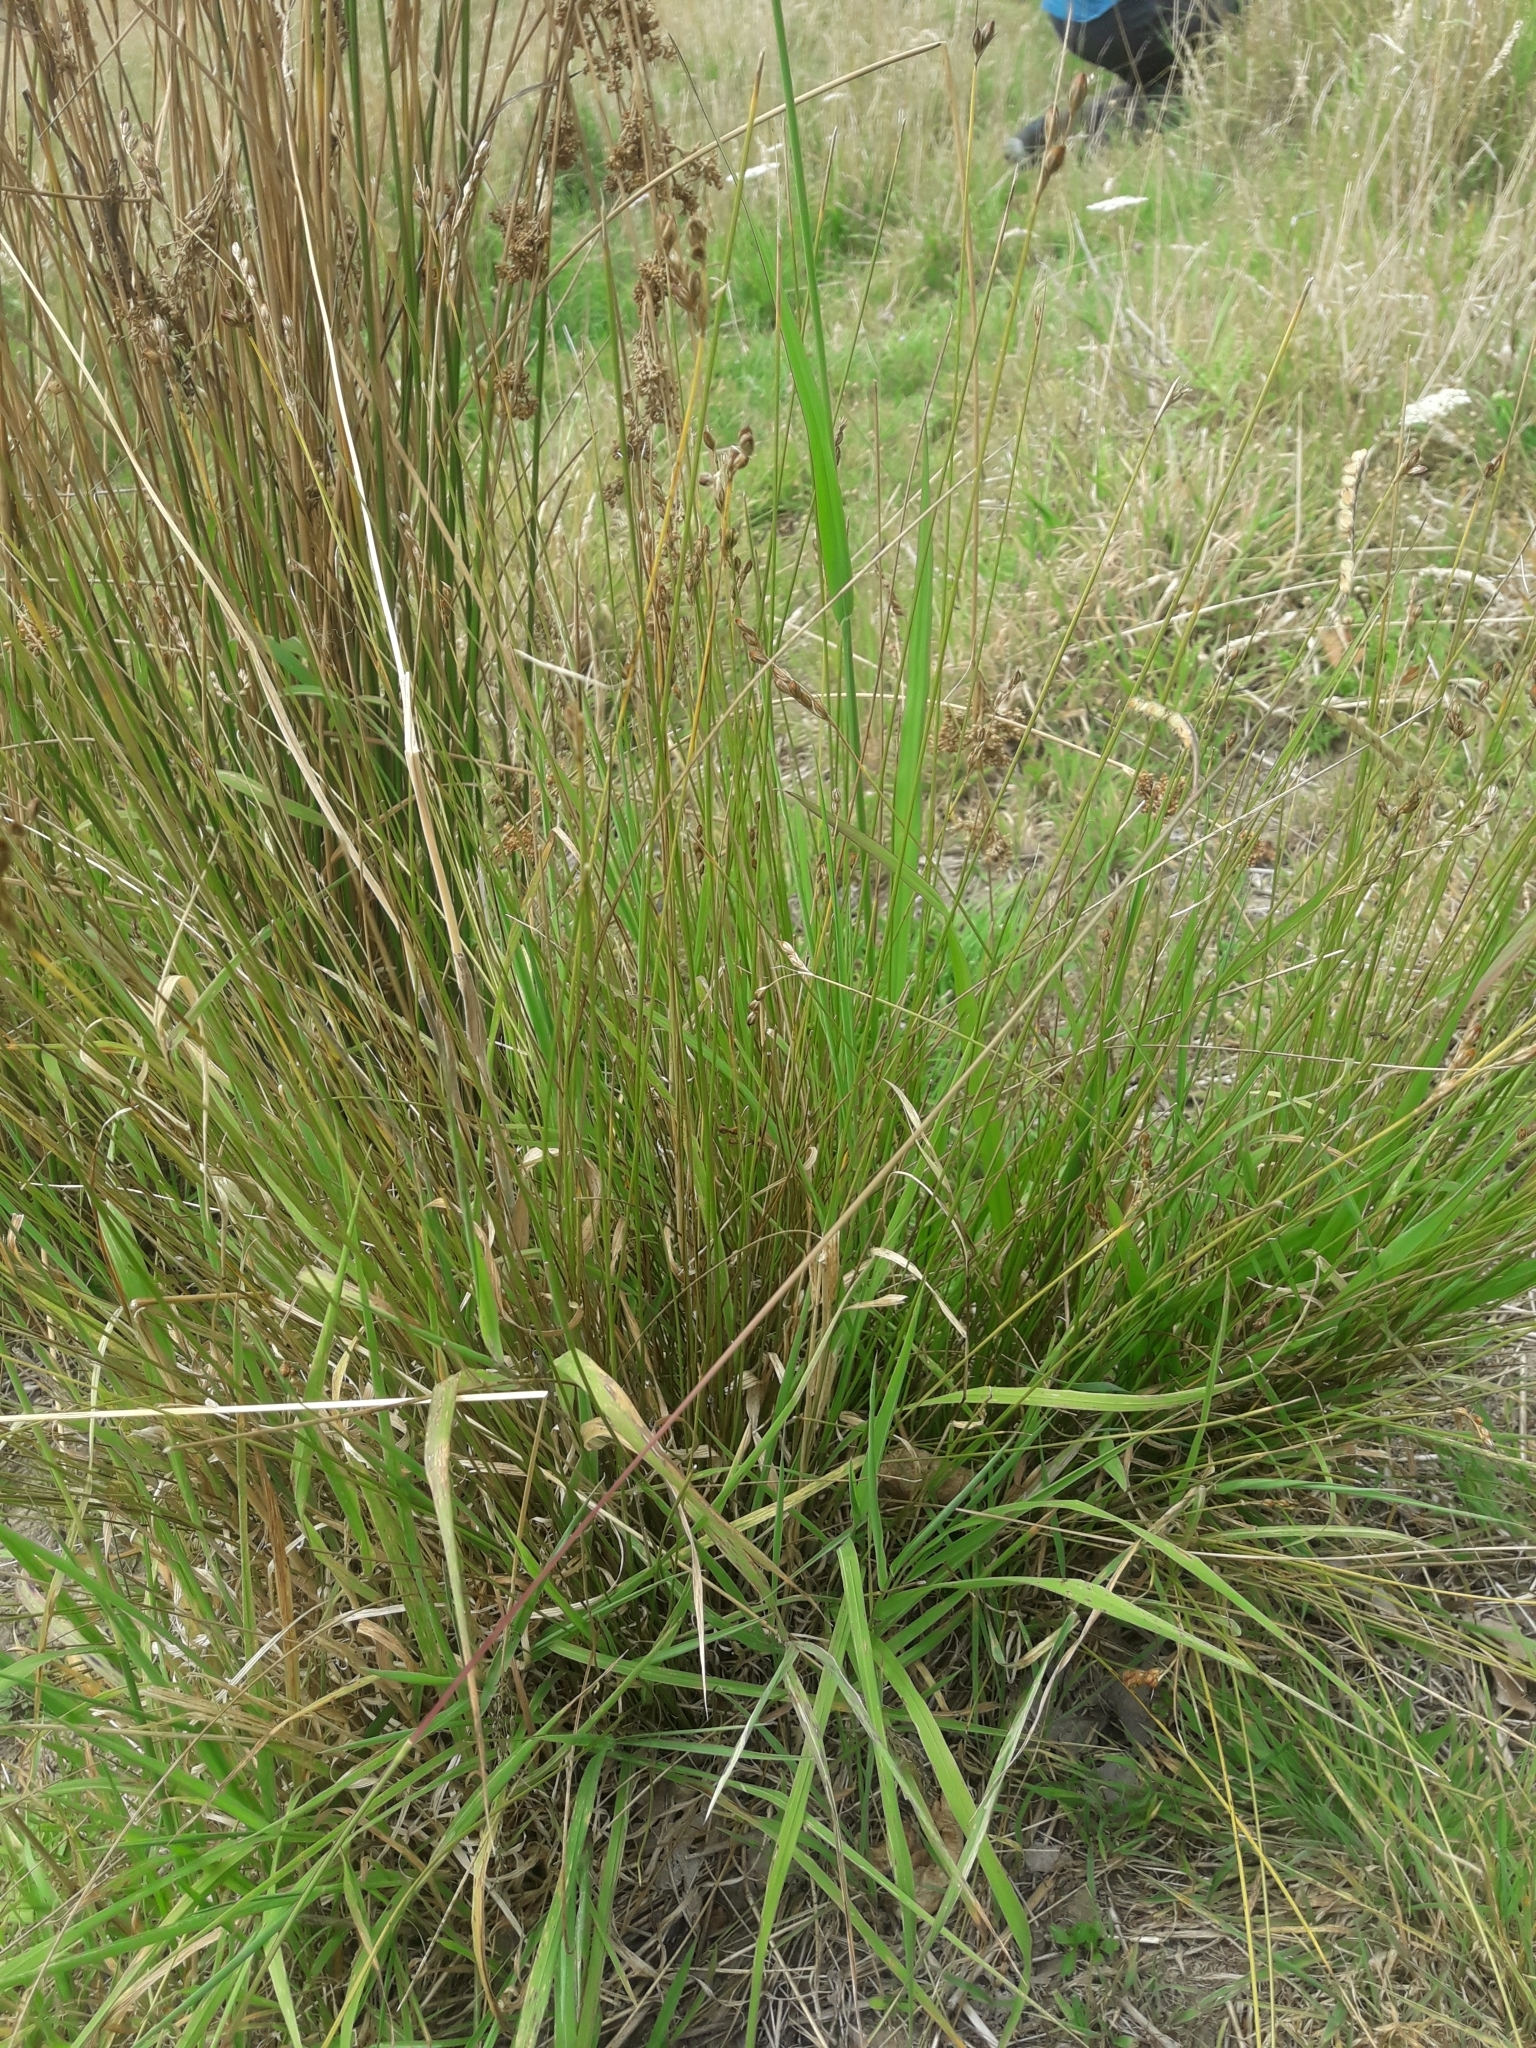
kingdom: Plantae
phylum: Tracheophyta
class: Liliopsida
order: Poales
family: Juncaceae
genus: Juncus
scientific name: Juncus imbricatus
